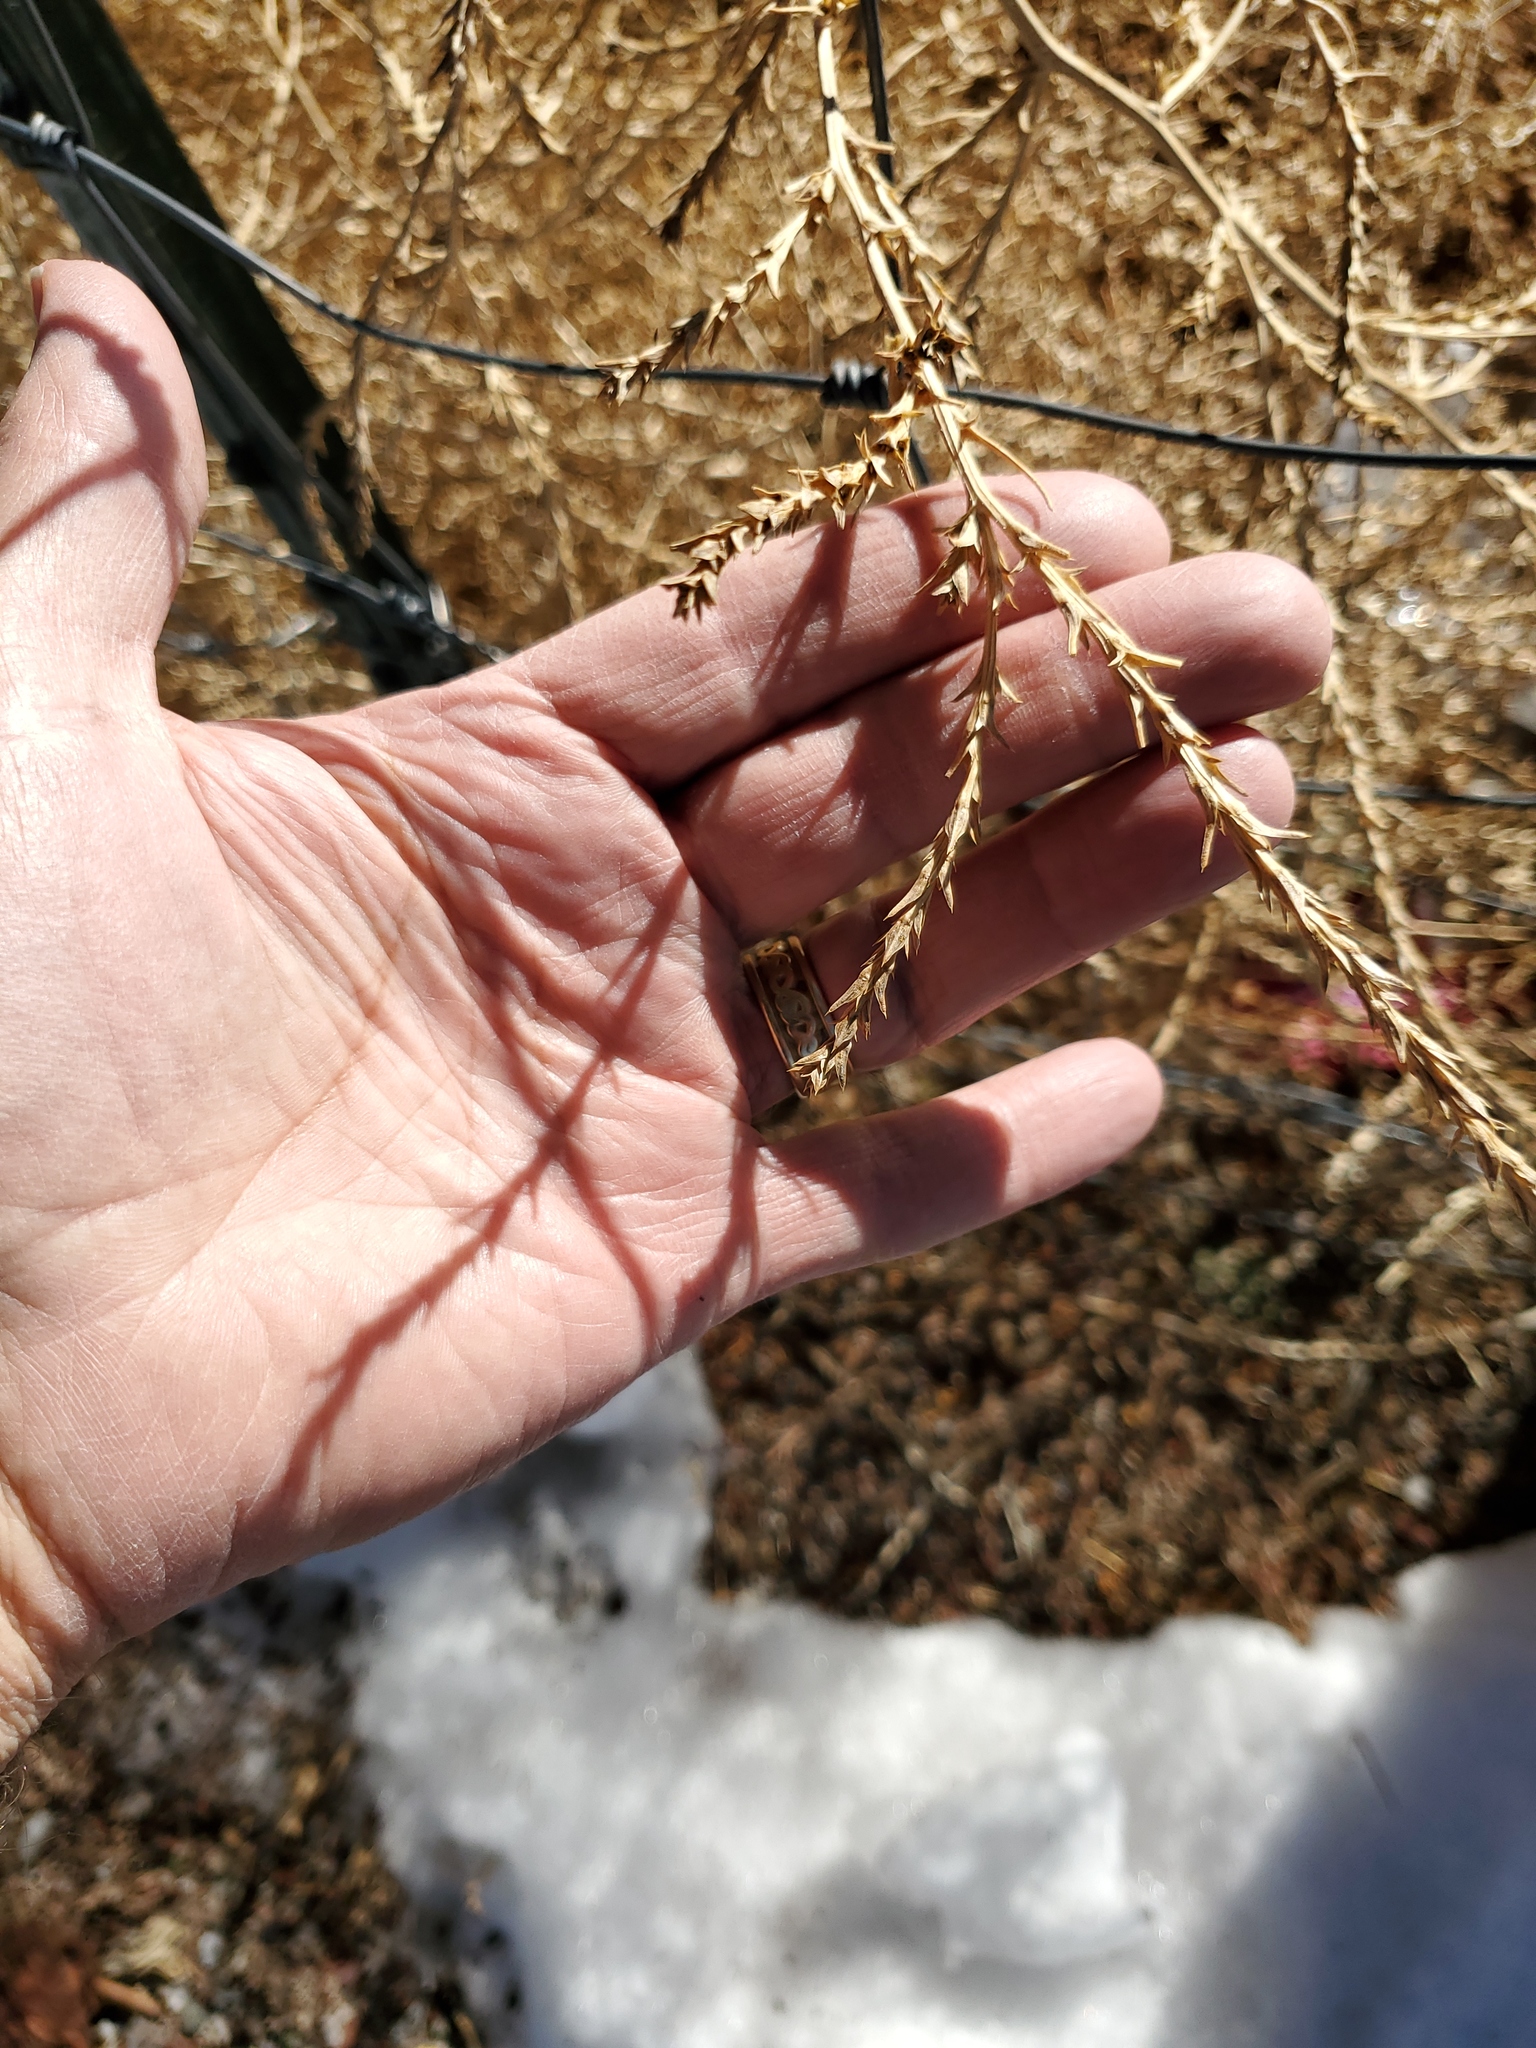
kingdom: Plantae
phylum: Tracheophyta
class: Magnoliopsida
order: Caryophyllales
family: Amaranthaceae
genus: Salsola
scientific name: Salsola tragus
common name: Prickly russian thistle
